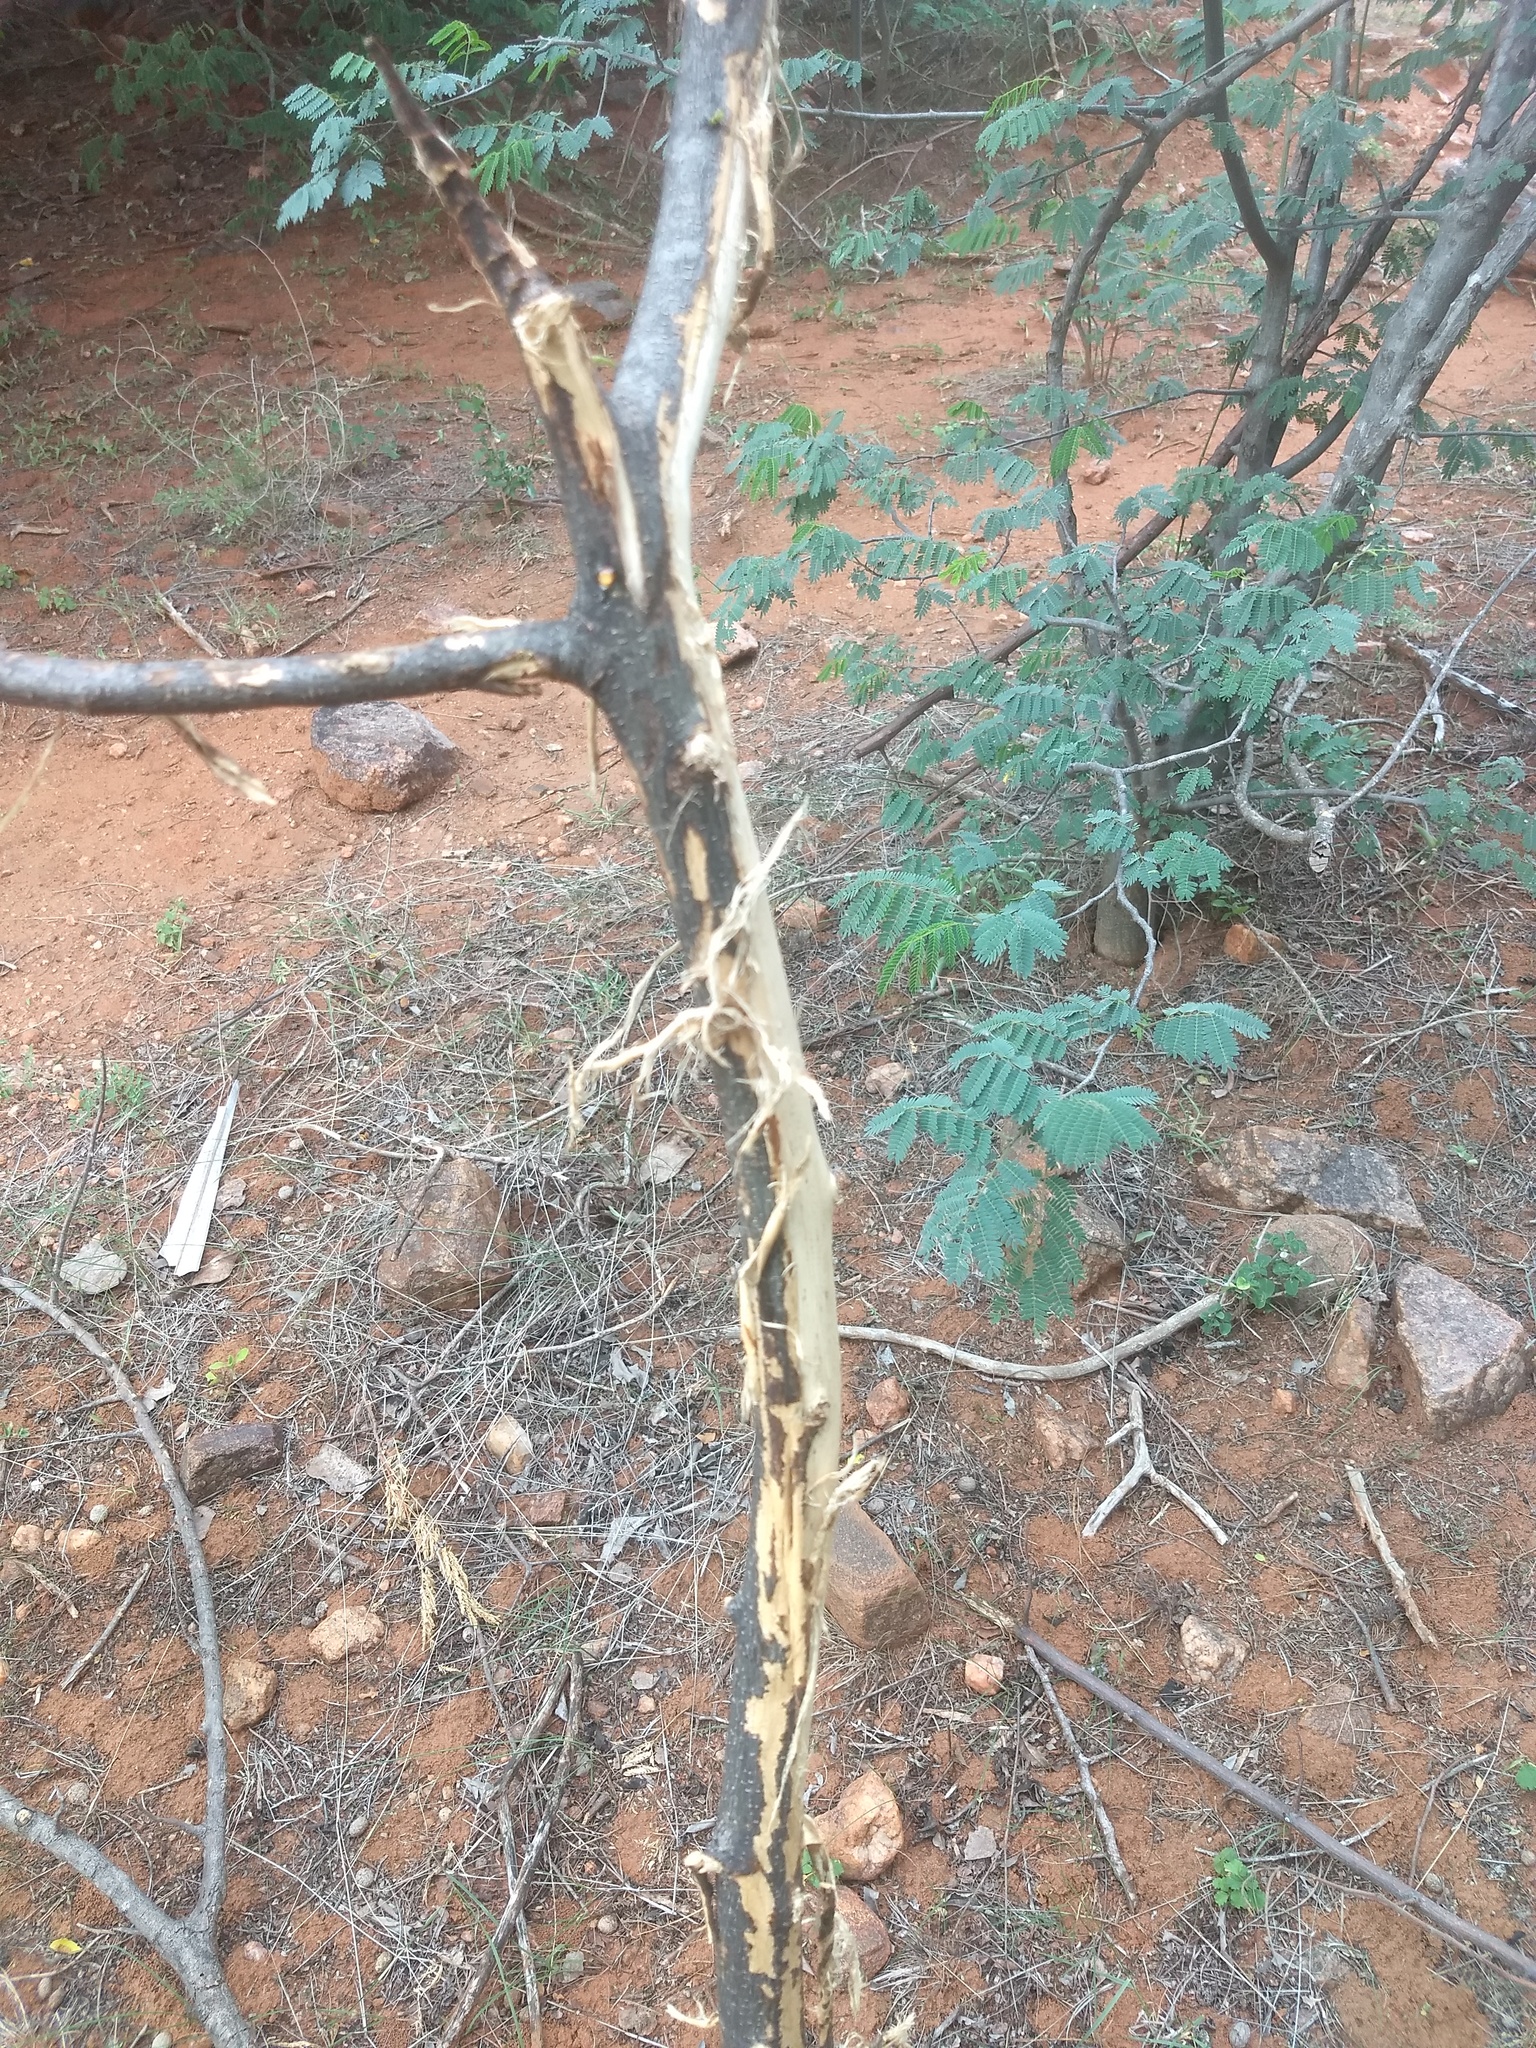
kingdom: Animalia
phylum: Chordata
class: Mammalia
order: Artiodactyla
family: Cervidae
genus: Axis
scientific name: Axis axis
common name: Chital
